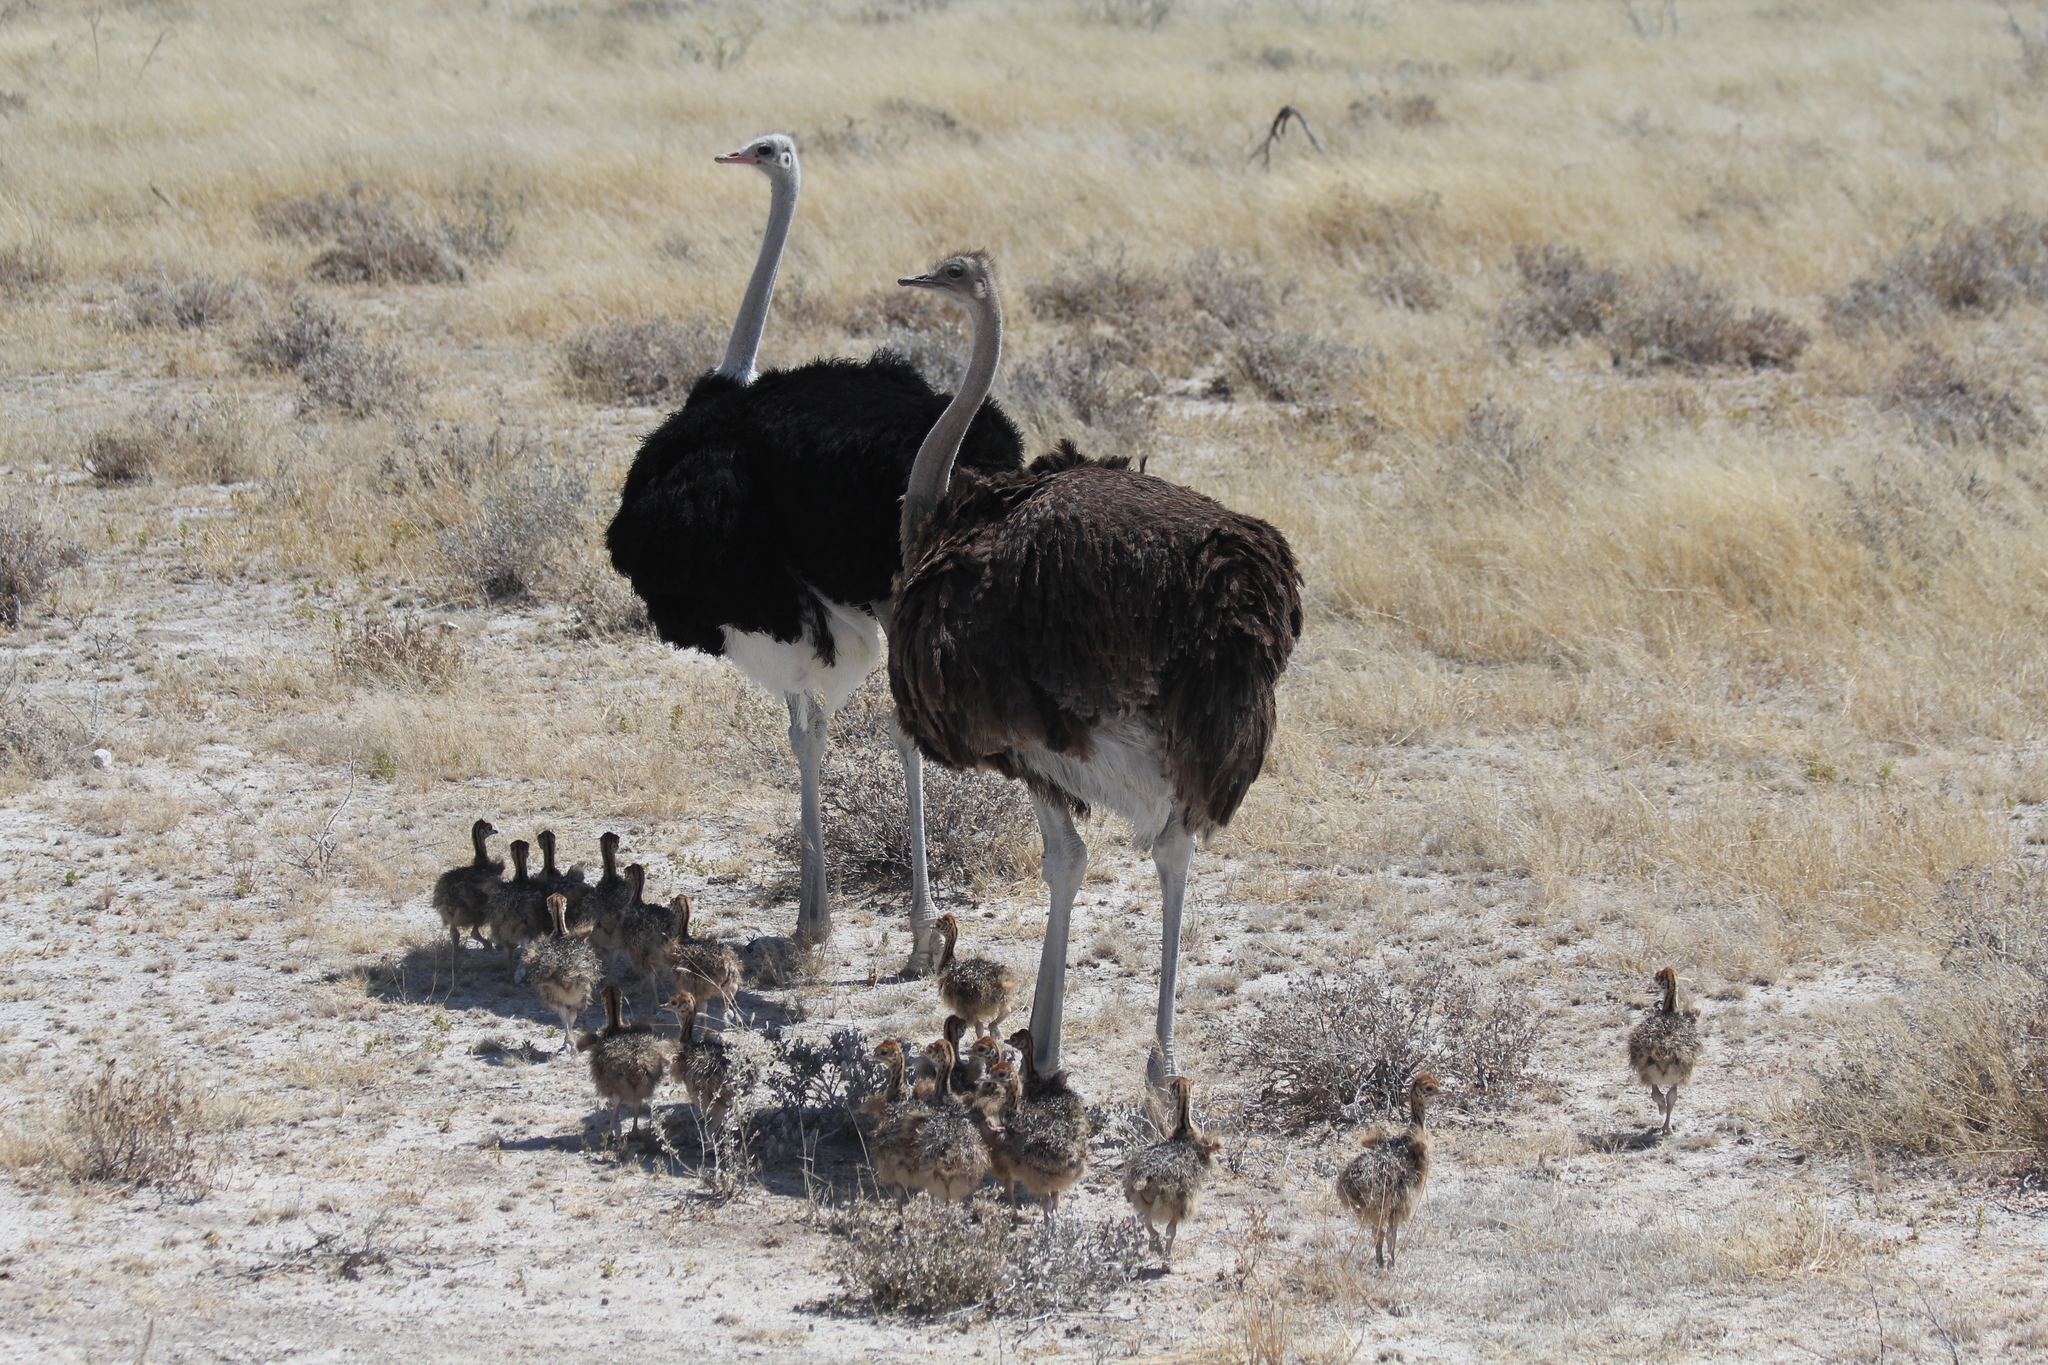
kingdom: Animalia
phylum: Chordata
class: Aves
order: Struthioniformes
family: Struthionidae
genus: Struthio
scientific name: Struthio camelus
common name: Common ostrich
